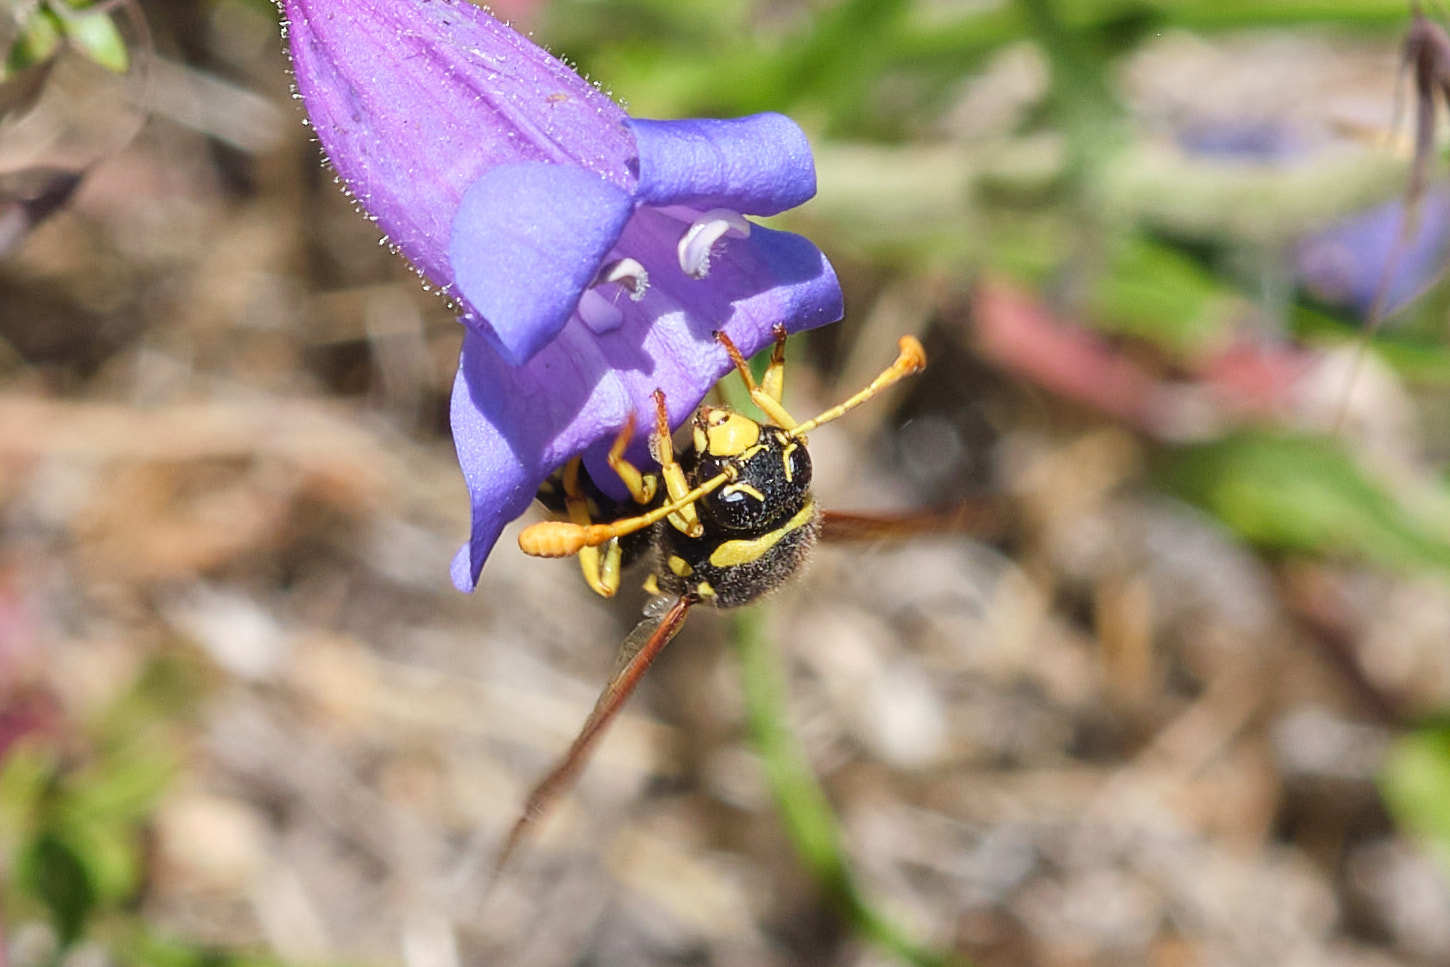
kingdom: Animalia
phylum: Arthropoda
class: Insecta
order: Hymenoptera
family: Masaridae
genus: Pseudomasaris
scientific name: Pseudomasaris vespoides
